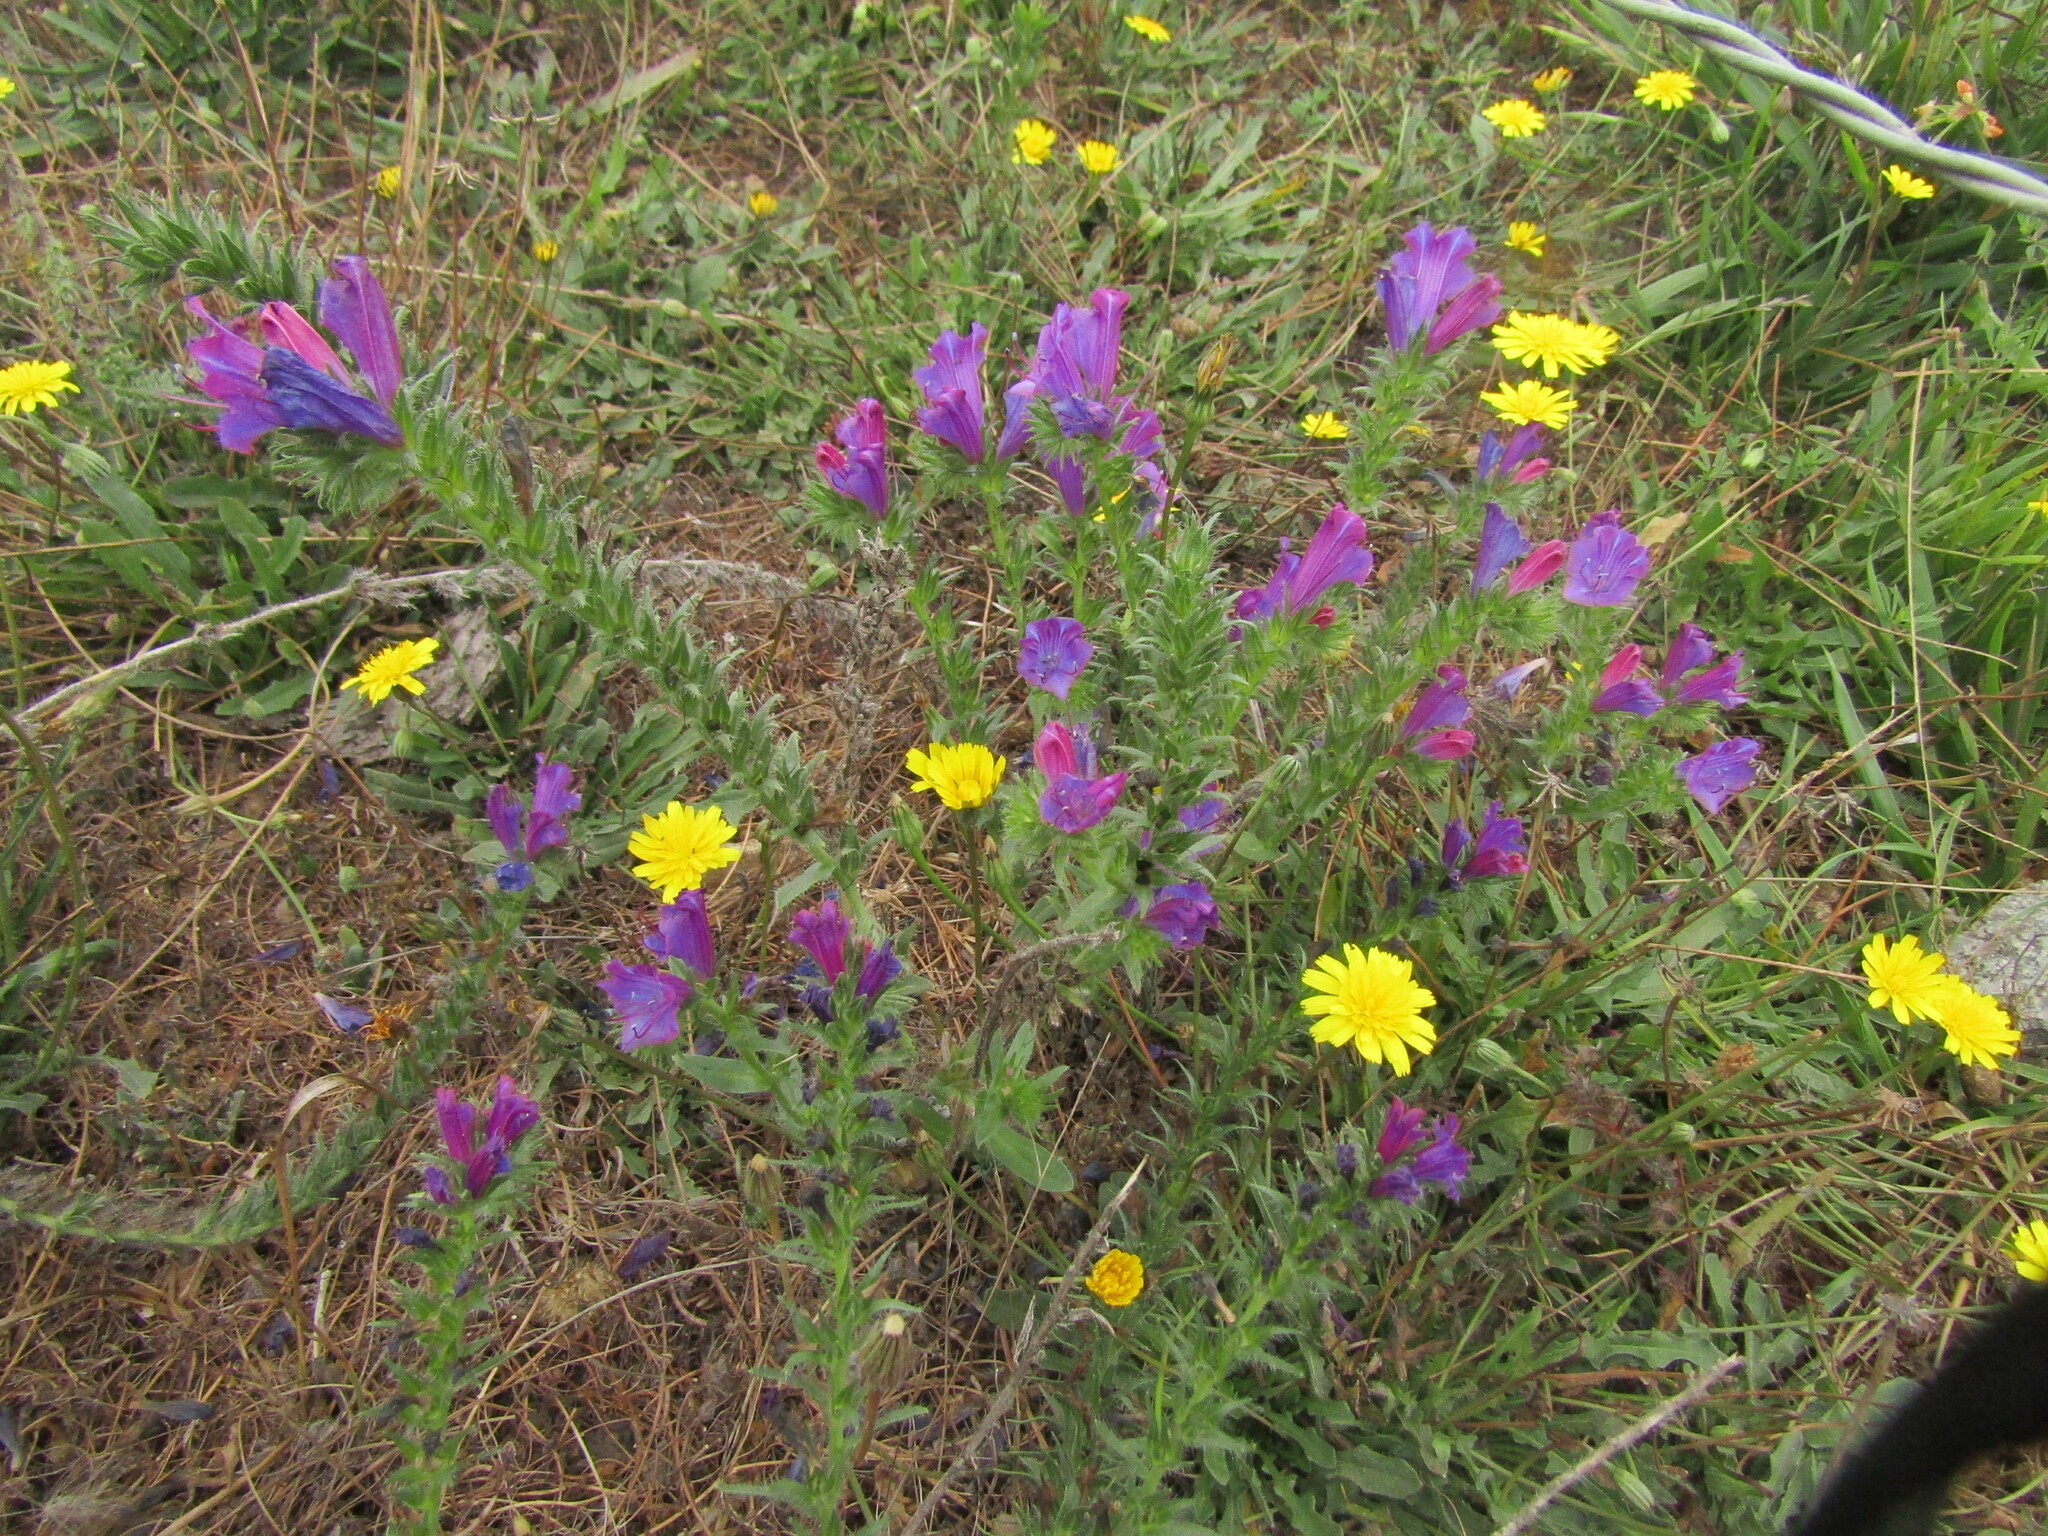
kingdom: Plantae
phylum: Tracheophyta
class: Magnoliopsida
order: Boraginales
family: Boraginaceae
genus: Echium
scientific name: Echium plantagineum
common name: Purple viper's-bugloss
